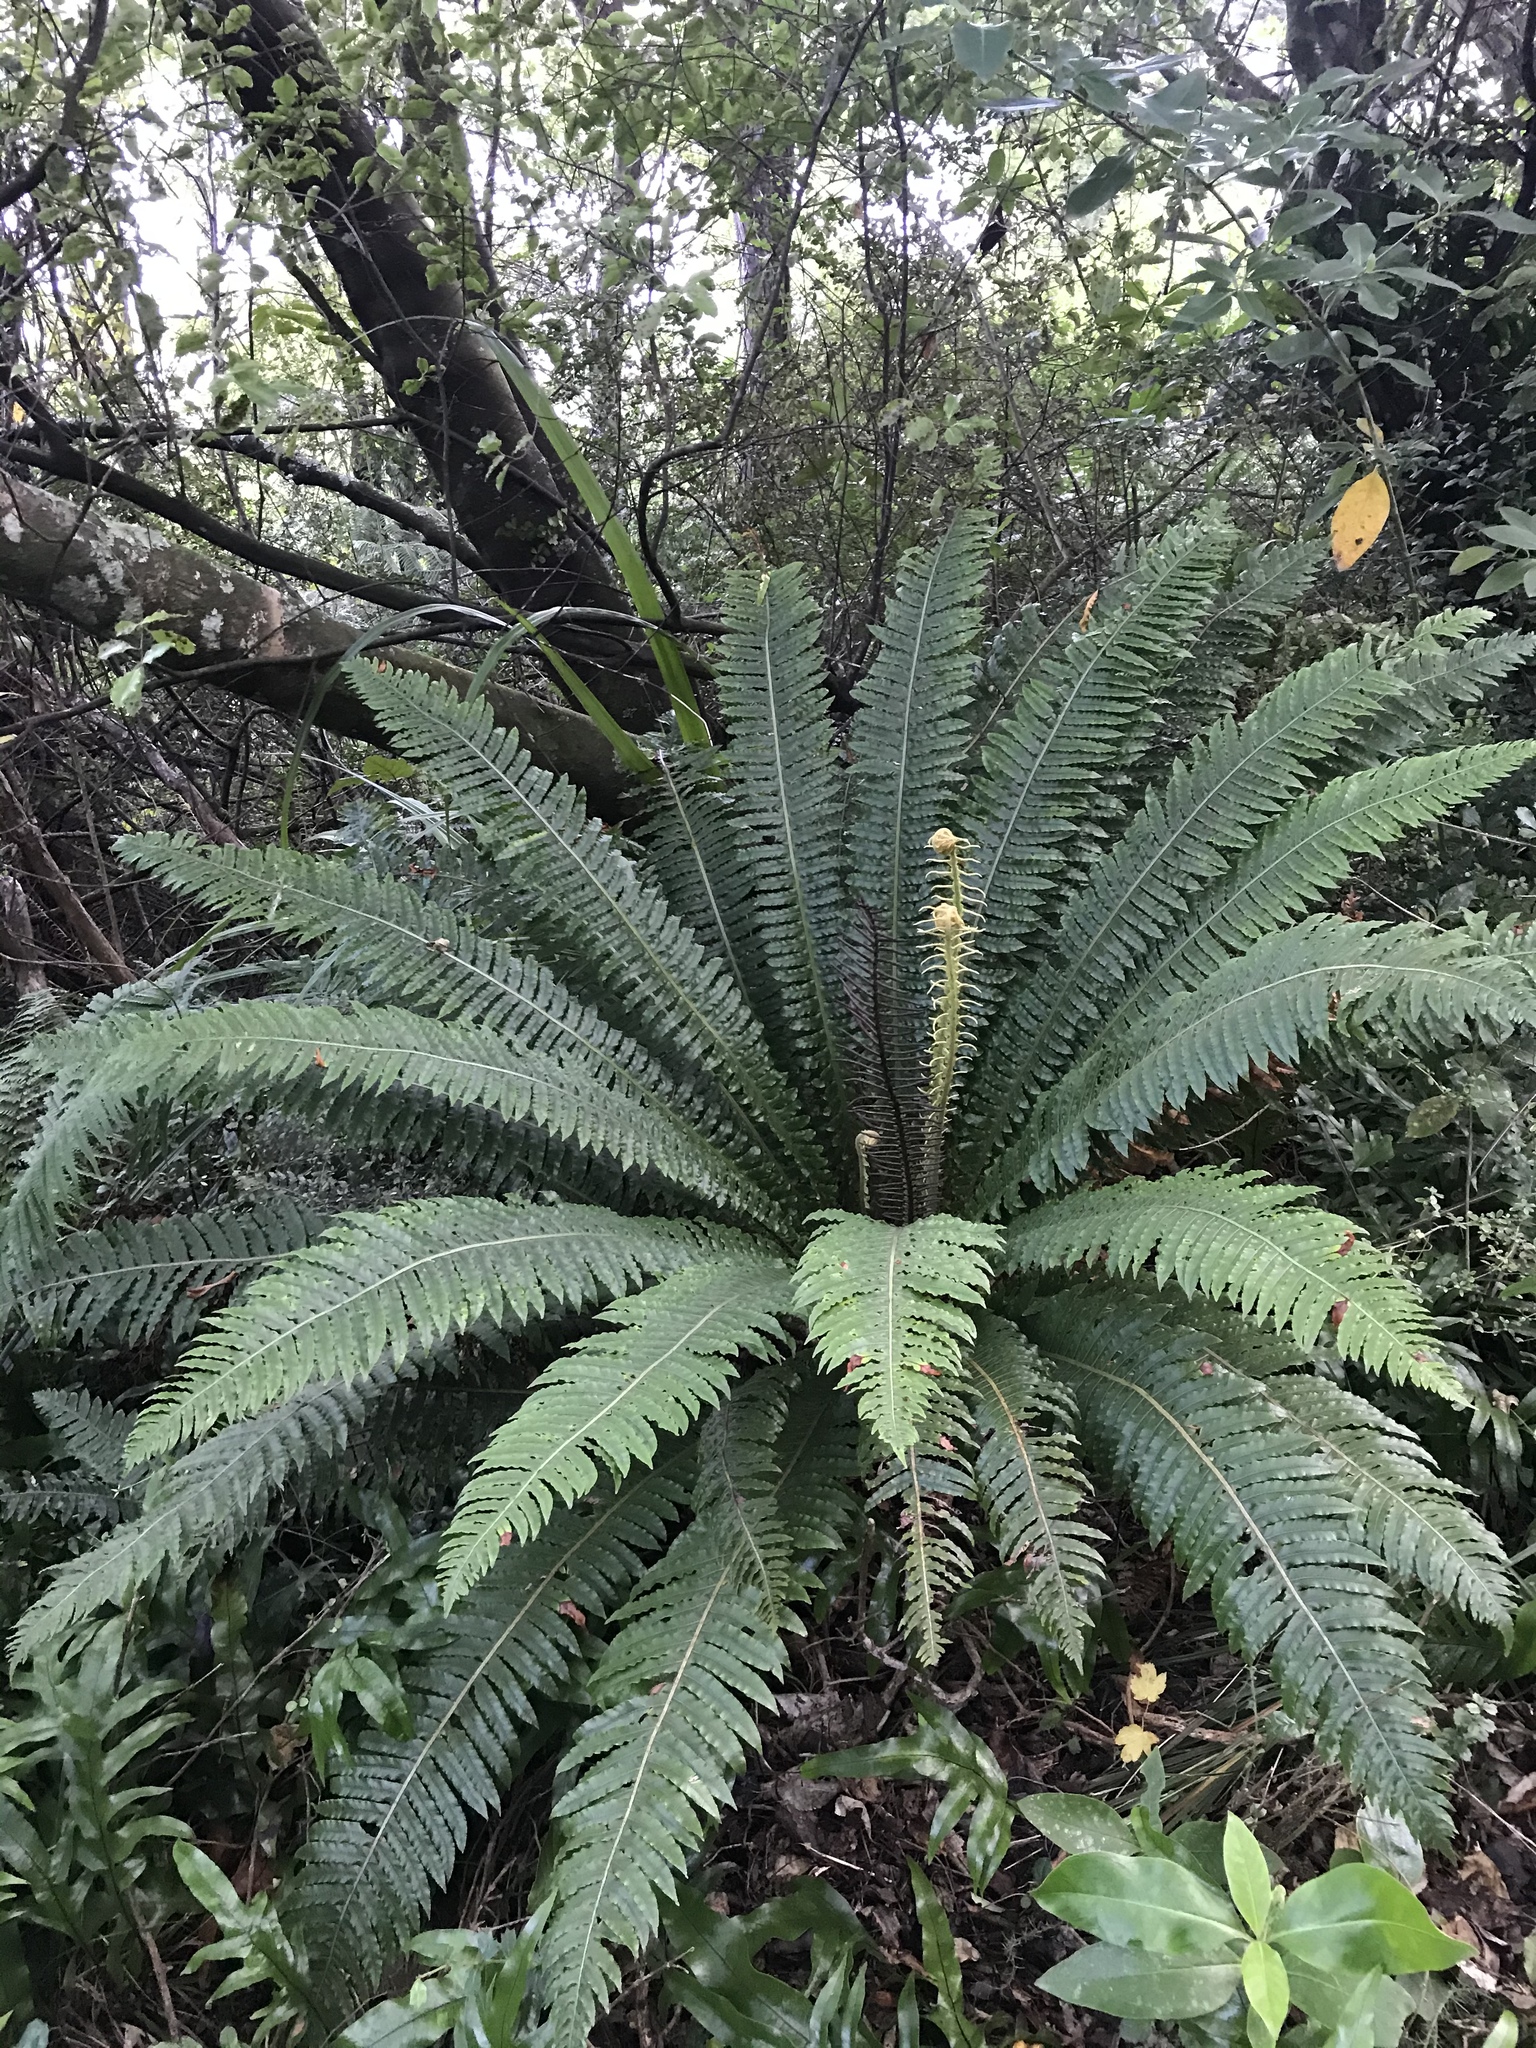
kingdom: Plantae
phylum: Tracheophyta
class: Polypodiopsida
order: Polypodiales
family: Blechnaceae
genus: Lomaria
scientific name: Lomaria discolor
